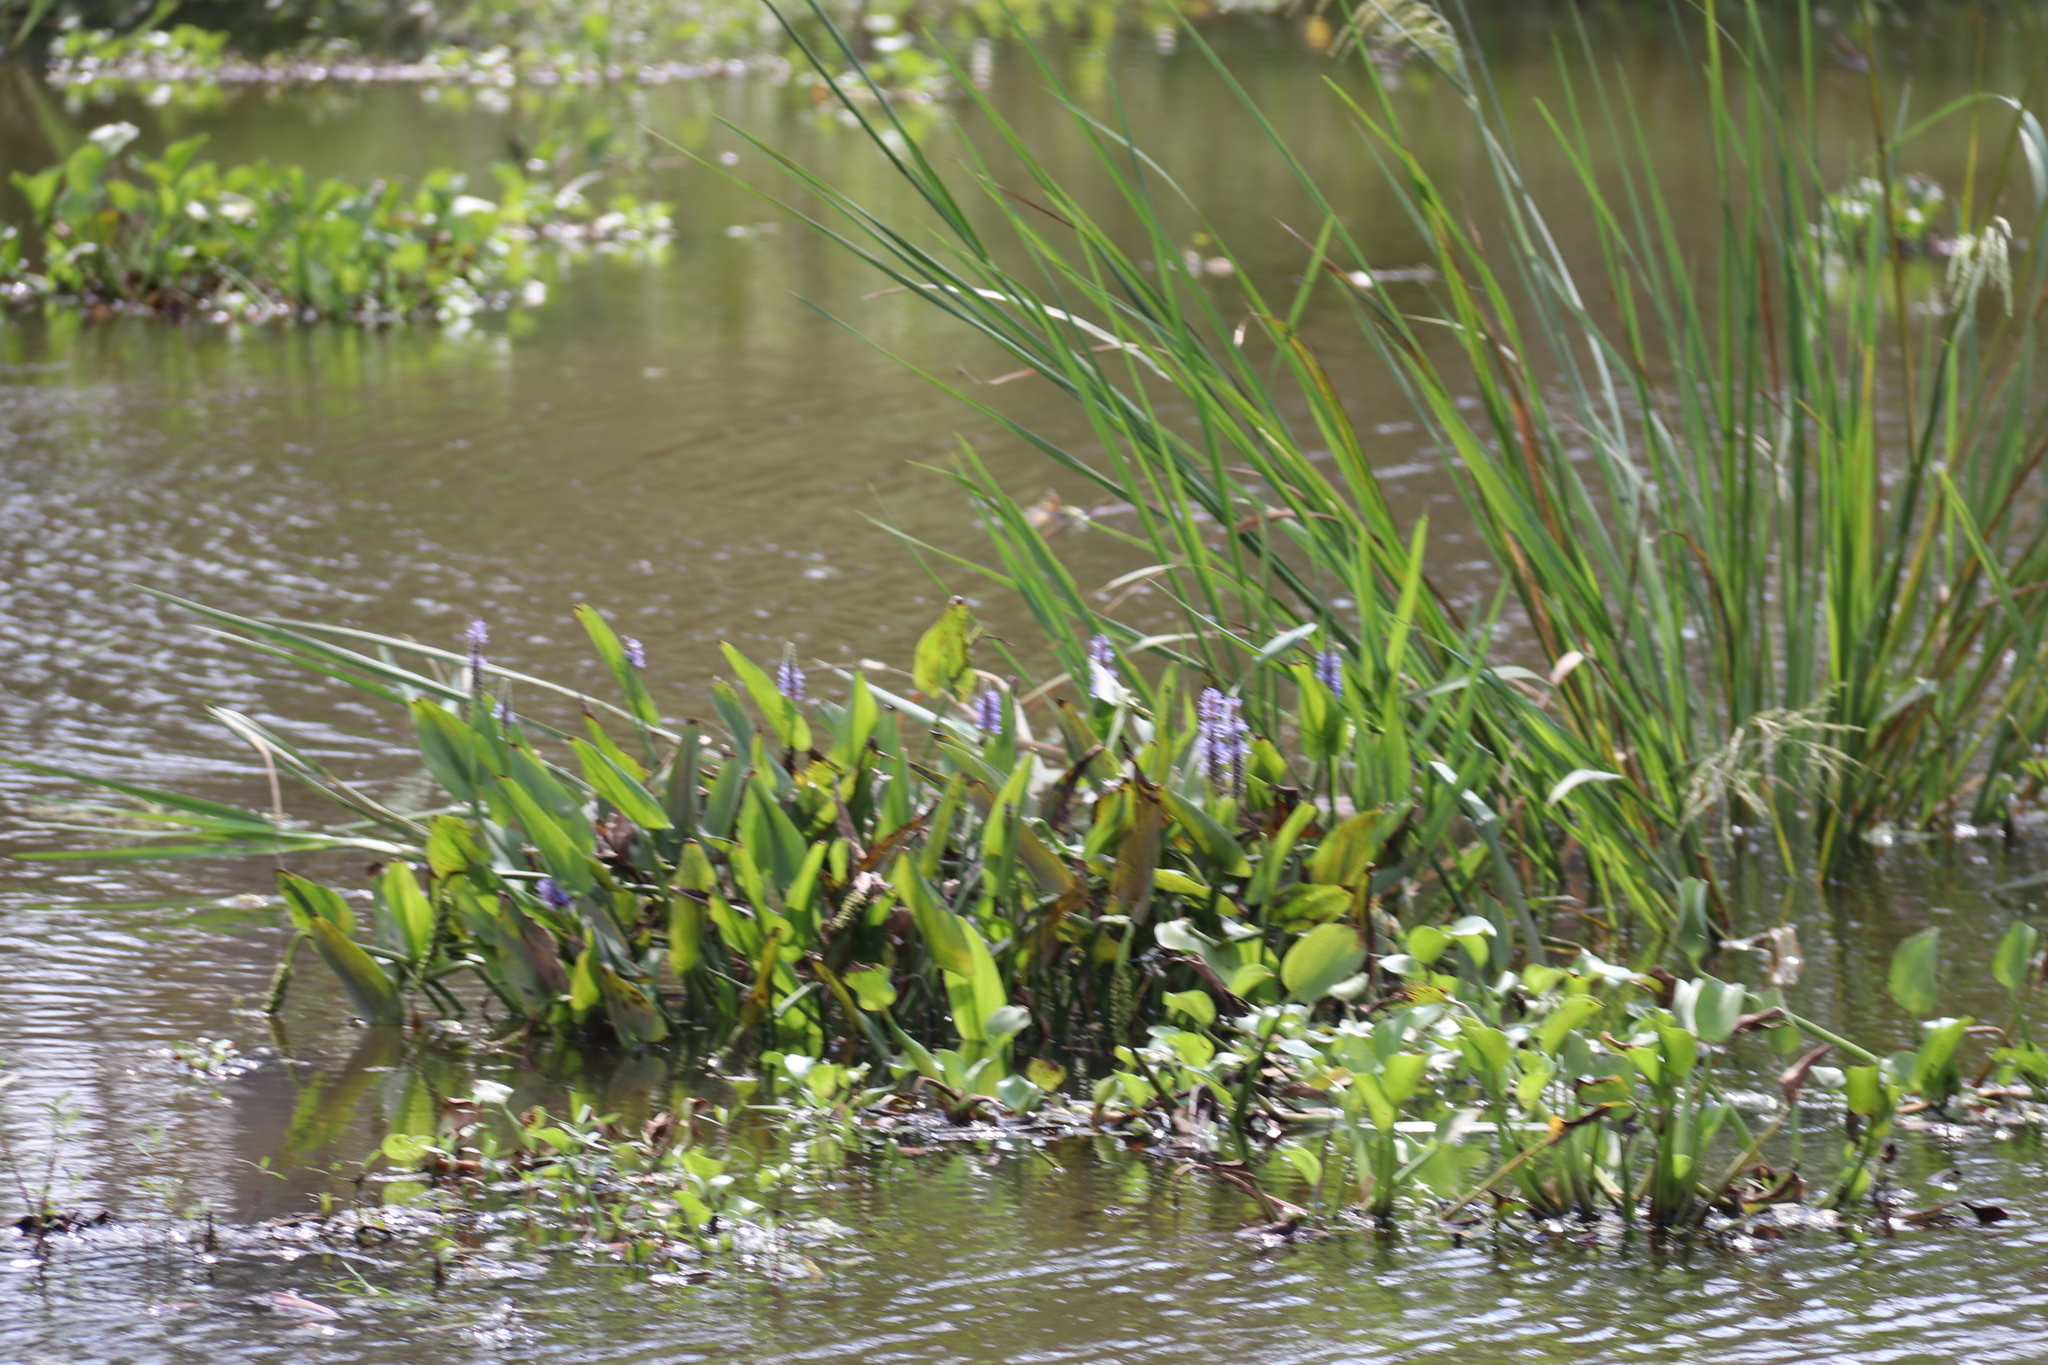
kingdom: Plantae
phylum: Tracheophyta
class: Liliopsida
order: Commelinales
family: Pontederiaceae
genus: Pontederia
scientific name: Pontederia crassipes
